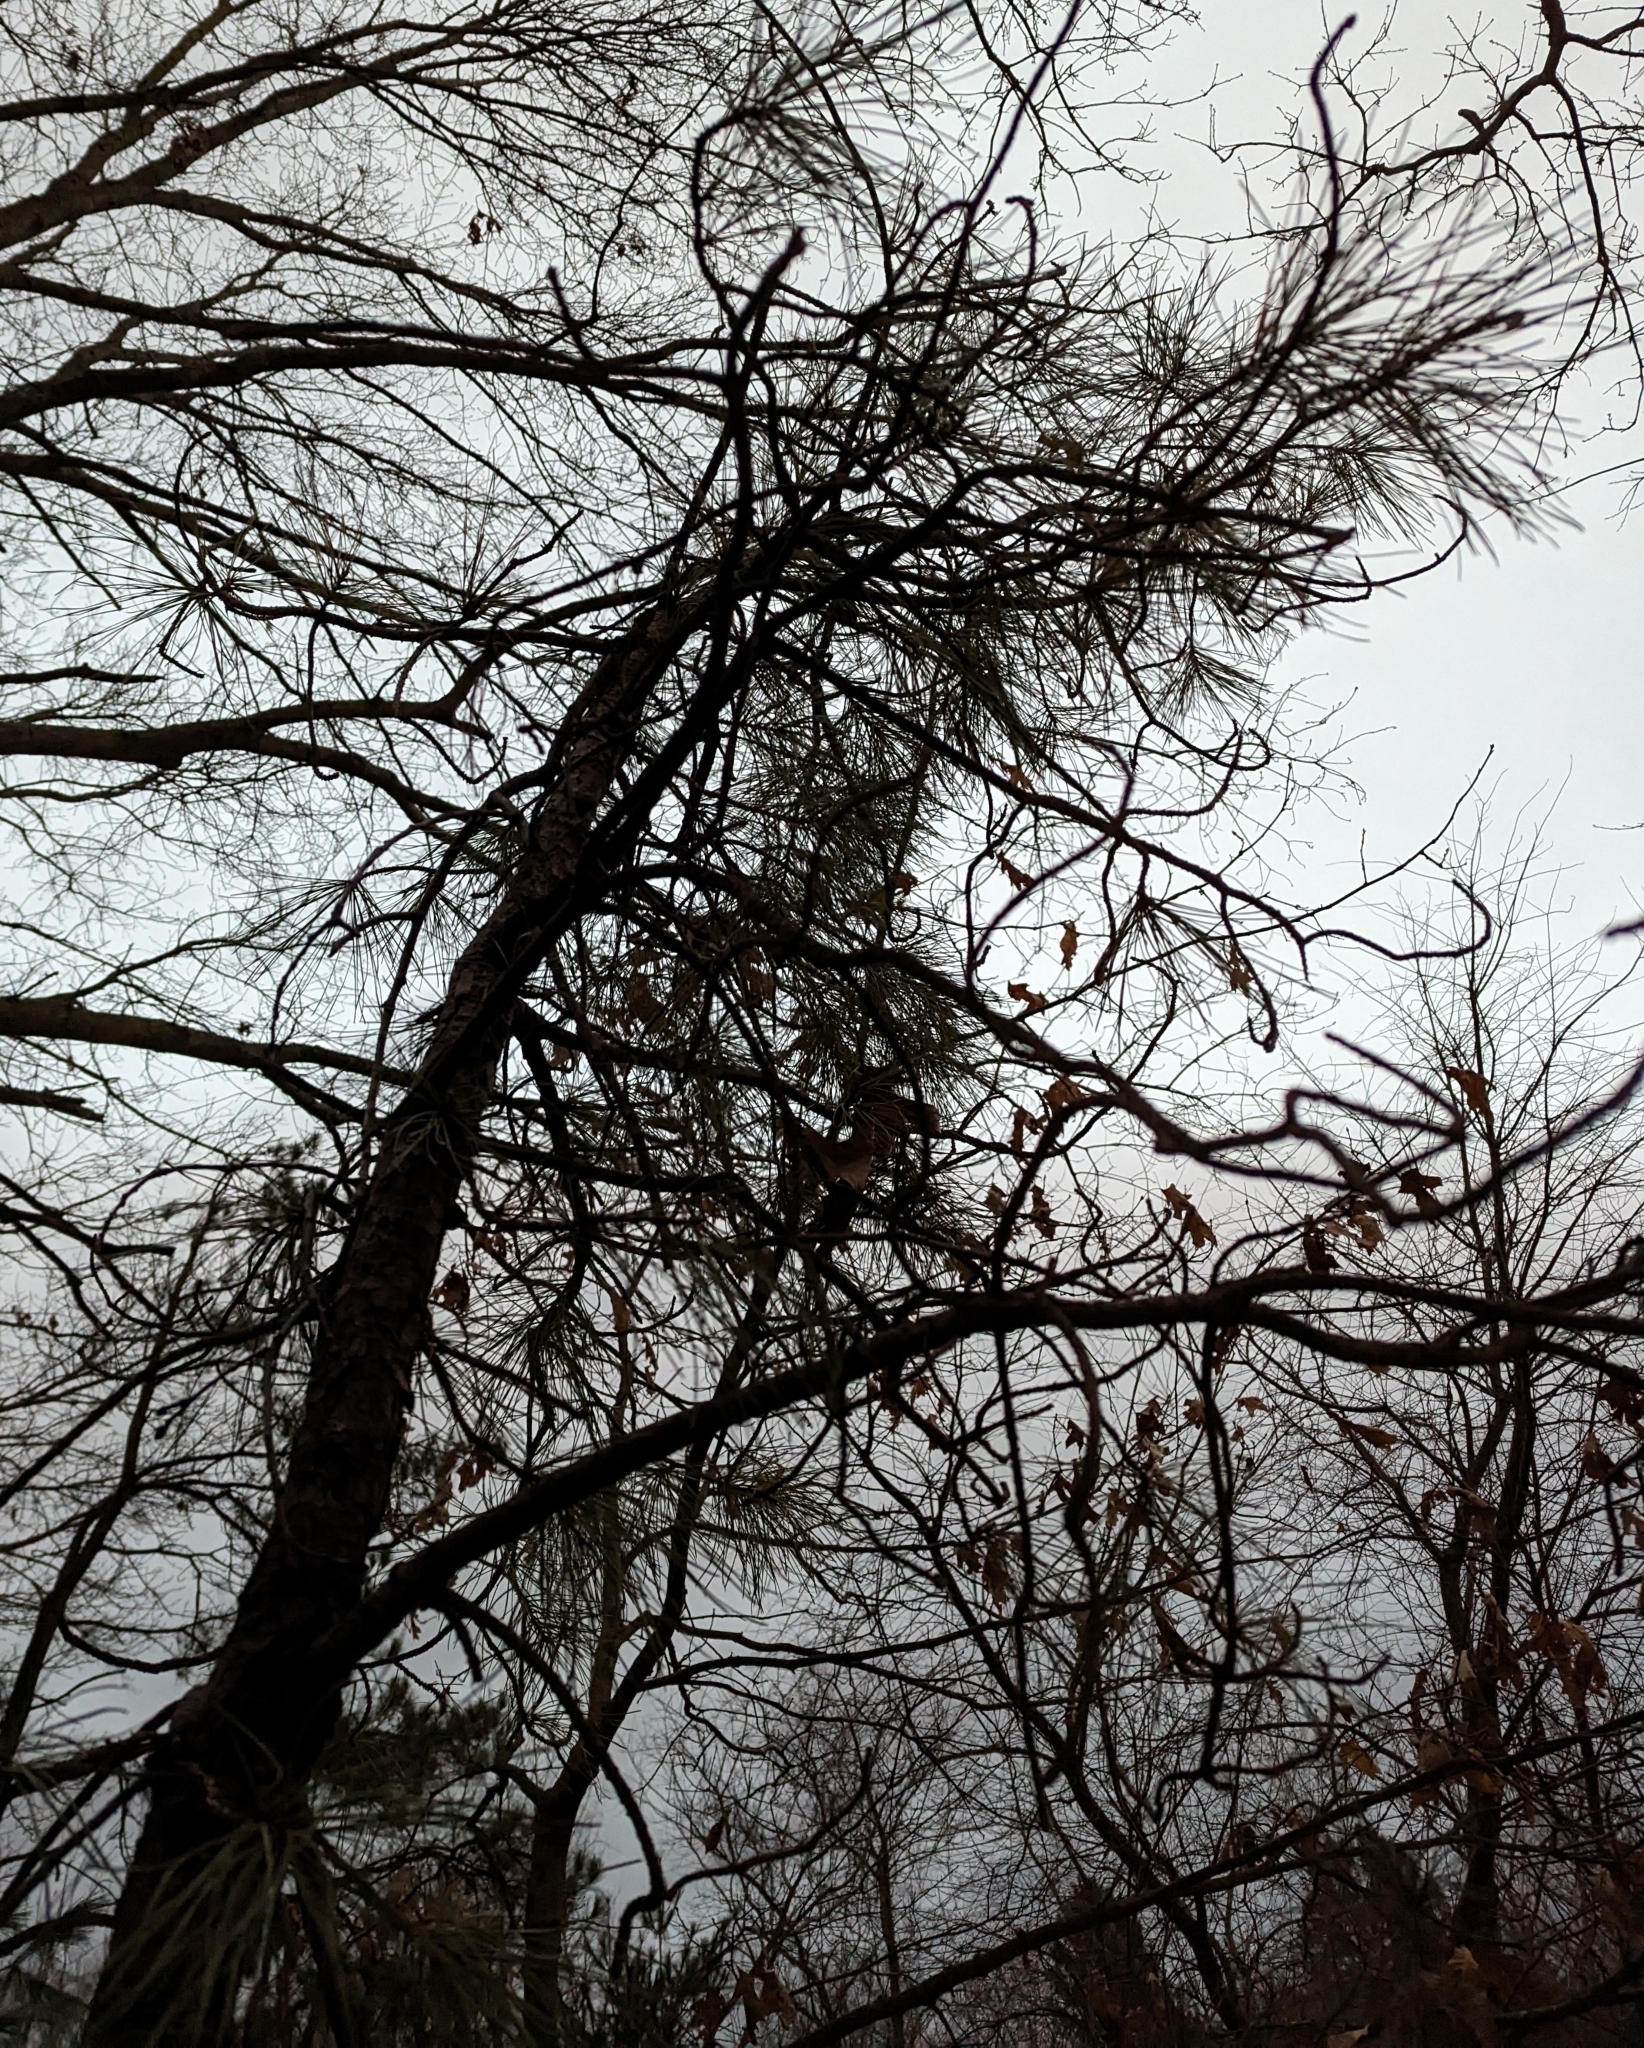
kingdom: Plantae
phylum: Tracheophyta
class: Pinopsida
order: Pinales
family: Pinaceae
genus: Pinus
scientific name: Pinus rigida
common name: Pitch pine
